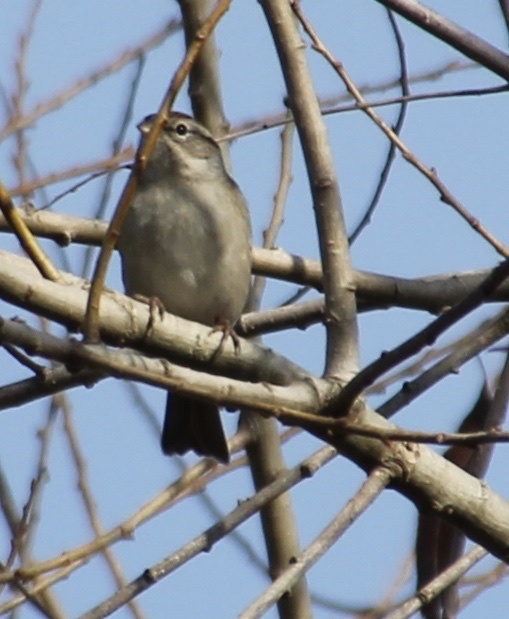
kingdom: Animalia
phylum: Chordata
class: Aves
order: Passeriformes
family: Passerellidae
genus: Spizella
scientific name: Spizella passerina
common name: Chipping sparrow
